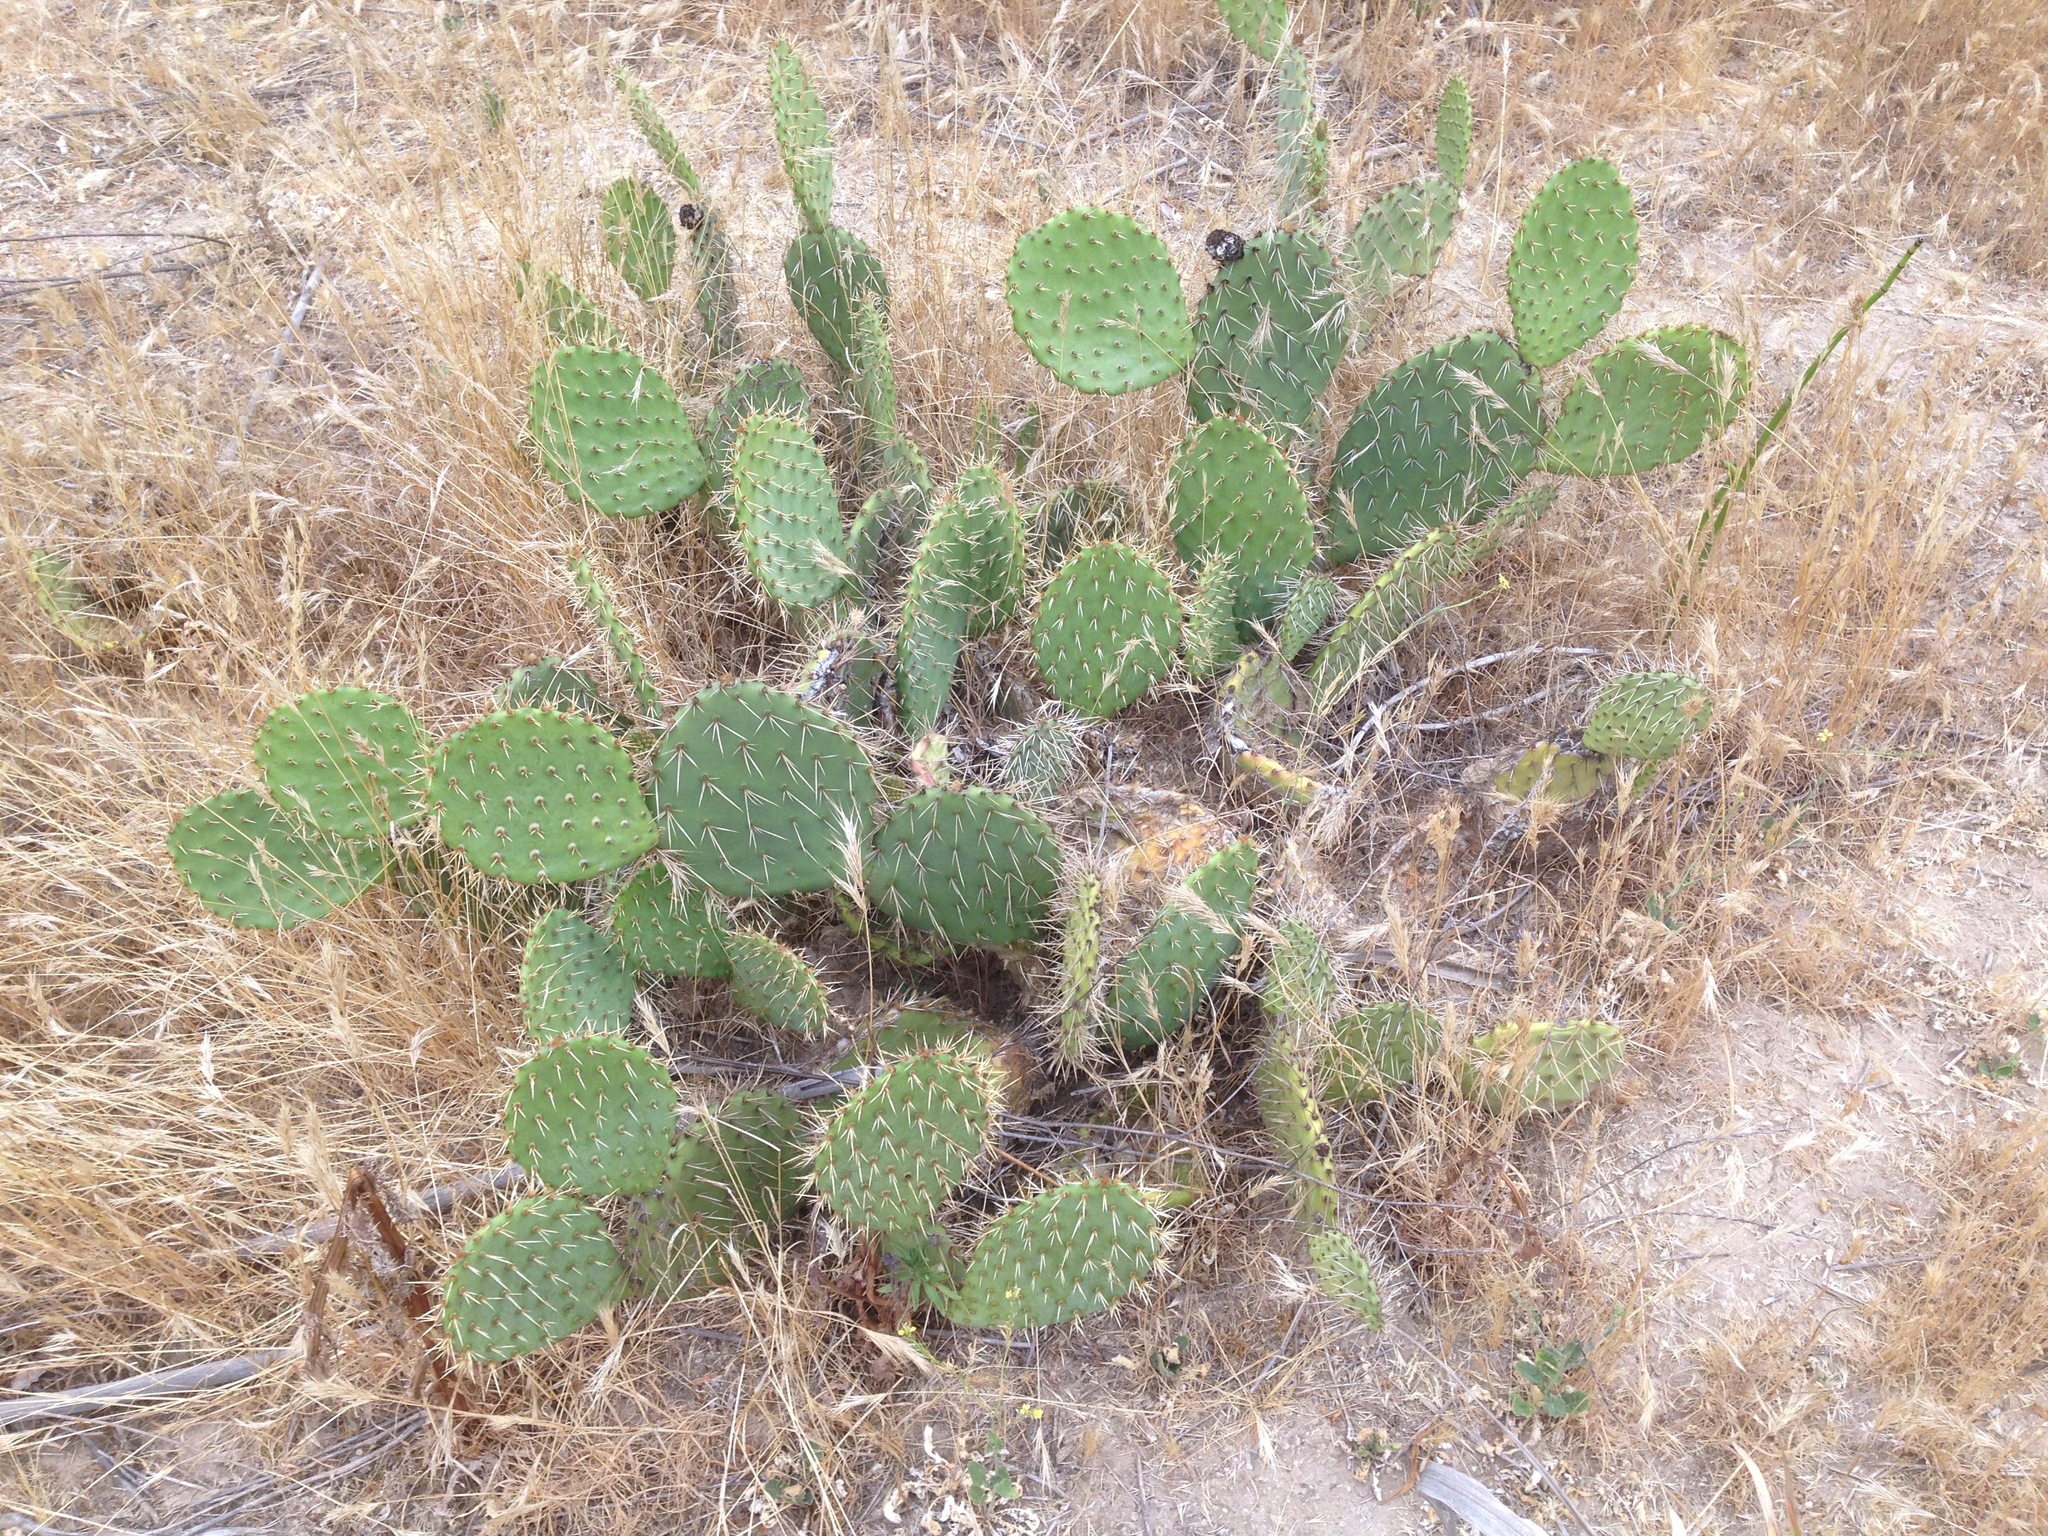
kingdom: Plantae
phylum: Tracheophyta
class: Magnoliopsida
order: Caryophyllales
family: Cactaceae
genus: Opuntia
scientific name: Opuntia littoralis
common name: Coastal prickly-pear
